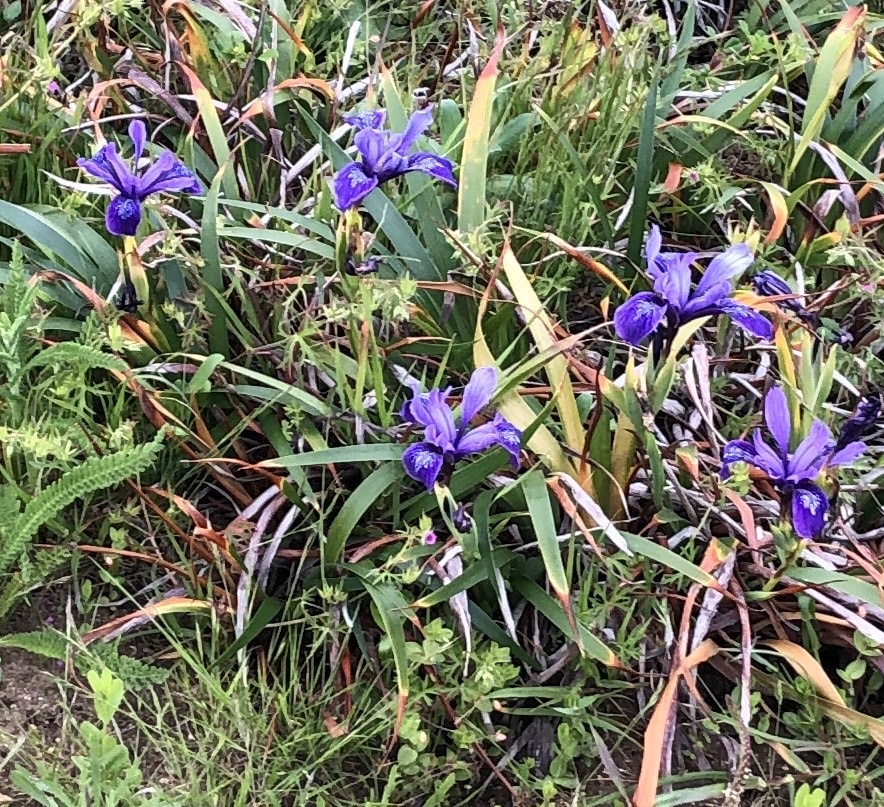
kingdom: Plantae
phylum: Tracheophyta
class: Liliopsida
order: Asparagales
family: Iridaceae
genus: Iris
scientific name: Iris douglasiana
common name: Marin iris
